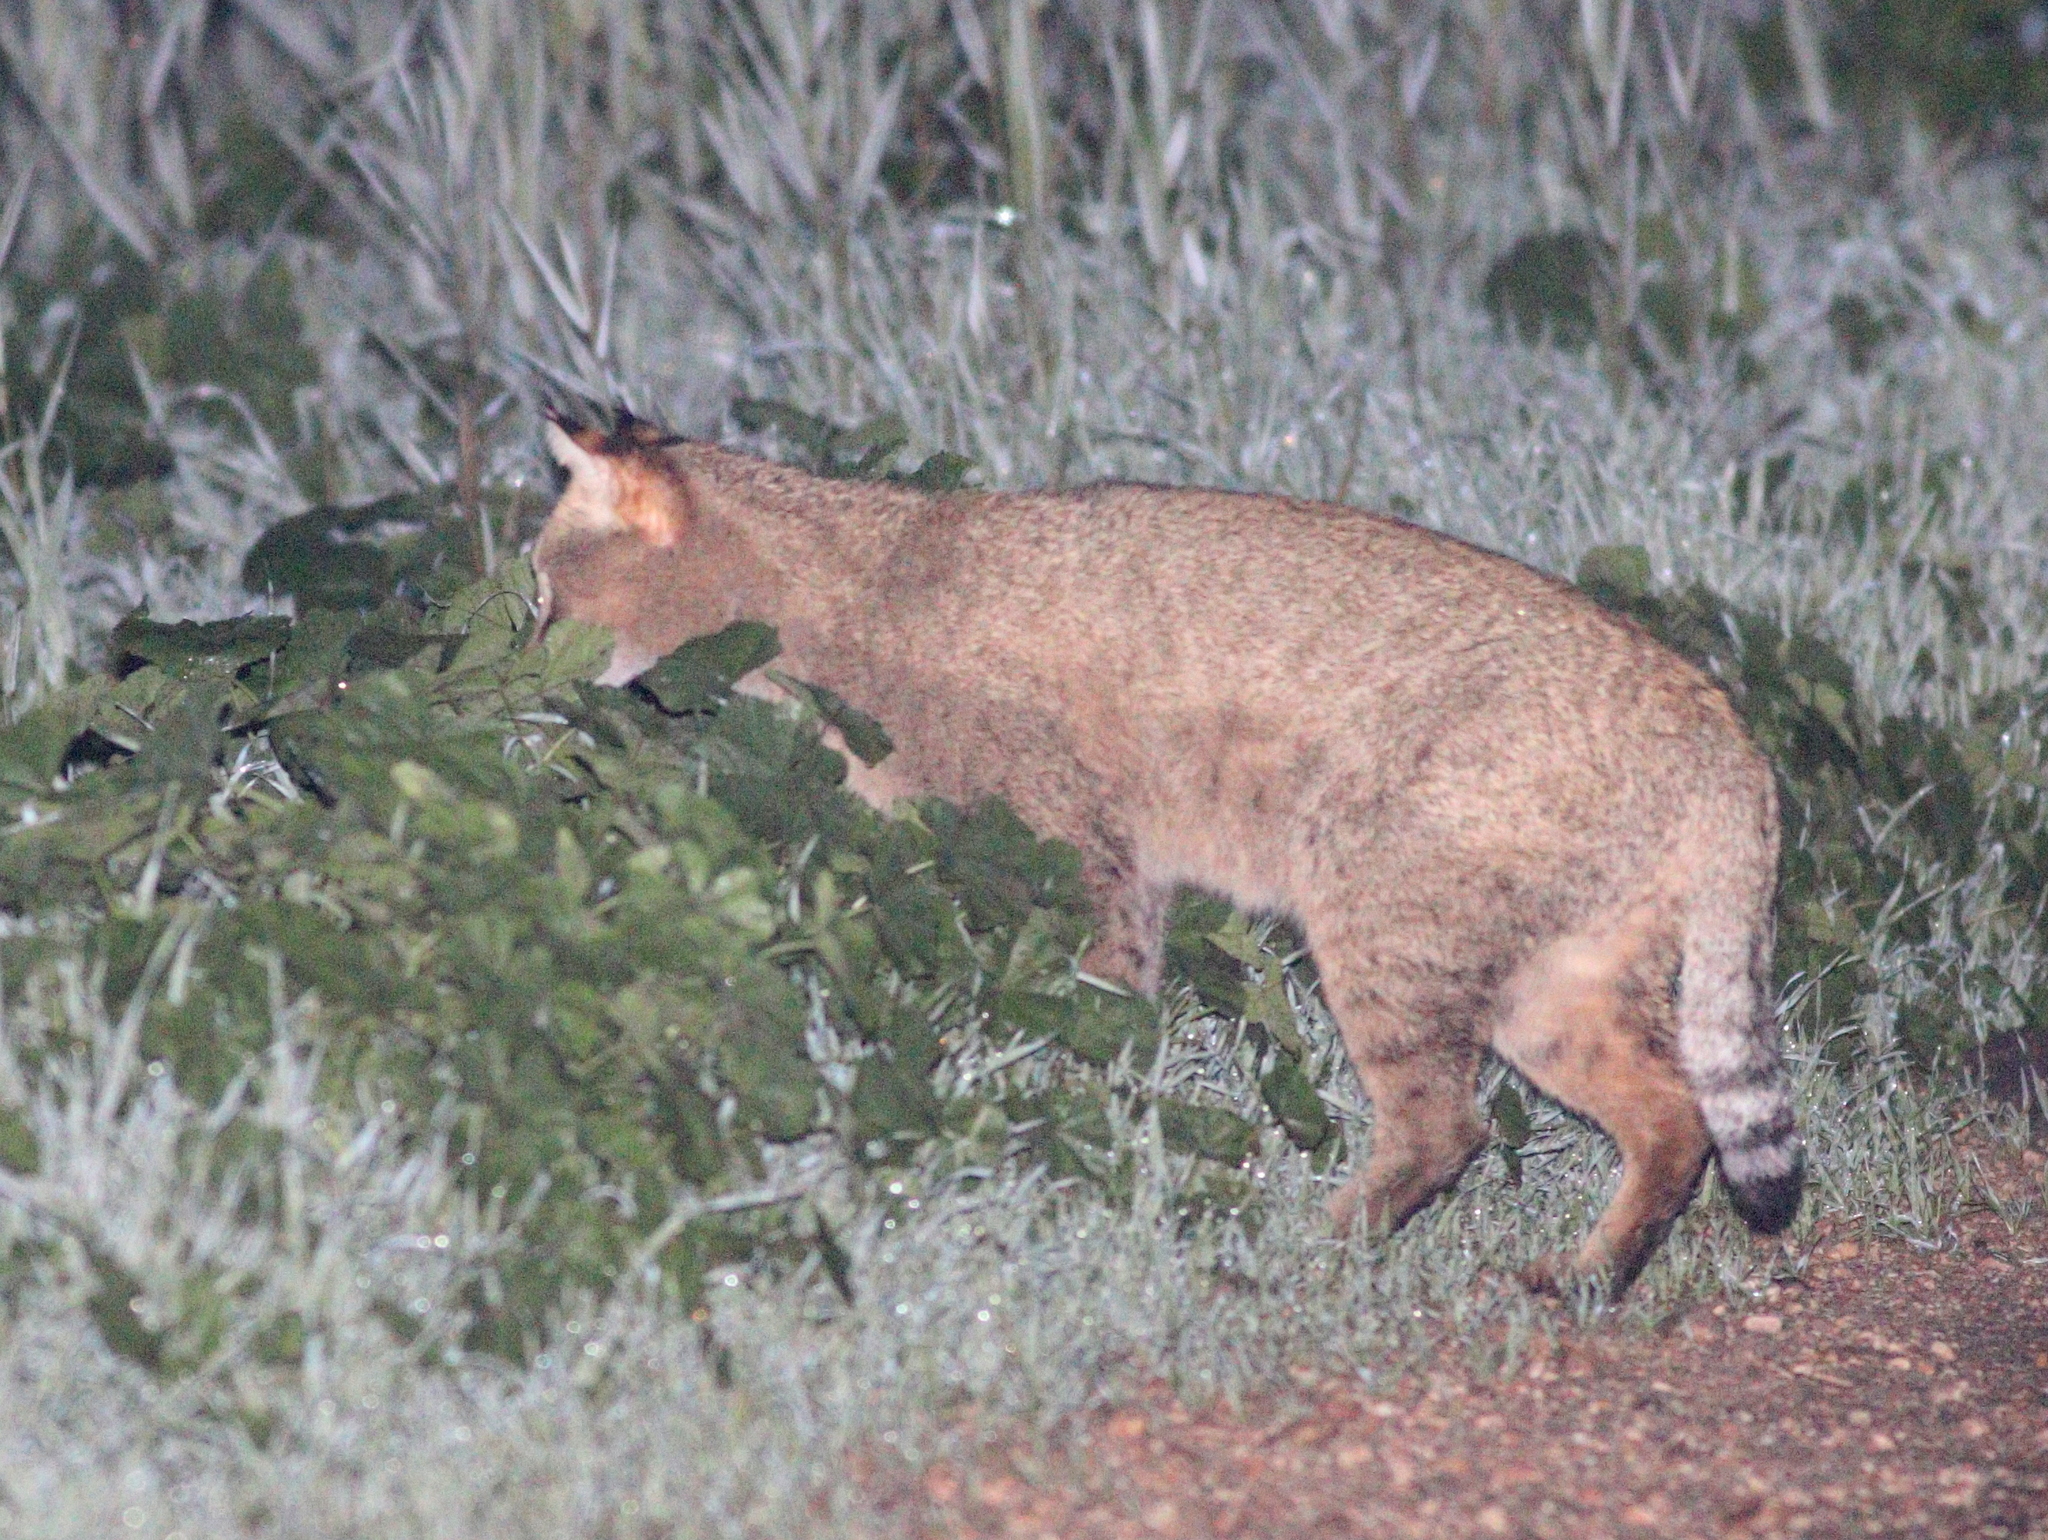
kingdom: Animalia
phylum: Chordata
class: Mammalia
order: Carnivora
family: Felidae
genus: Felis
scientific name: Felis chaus
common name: Jungle cat
